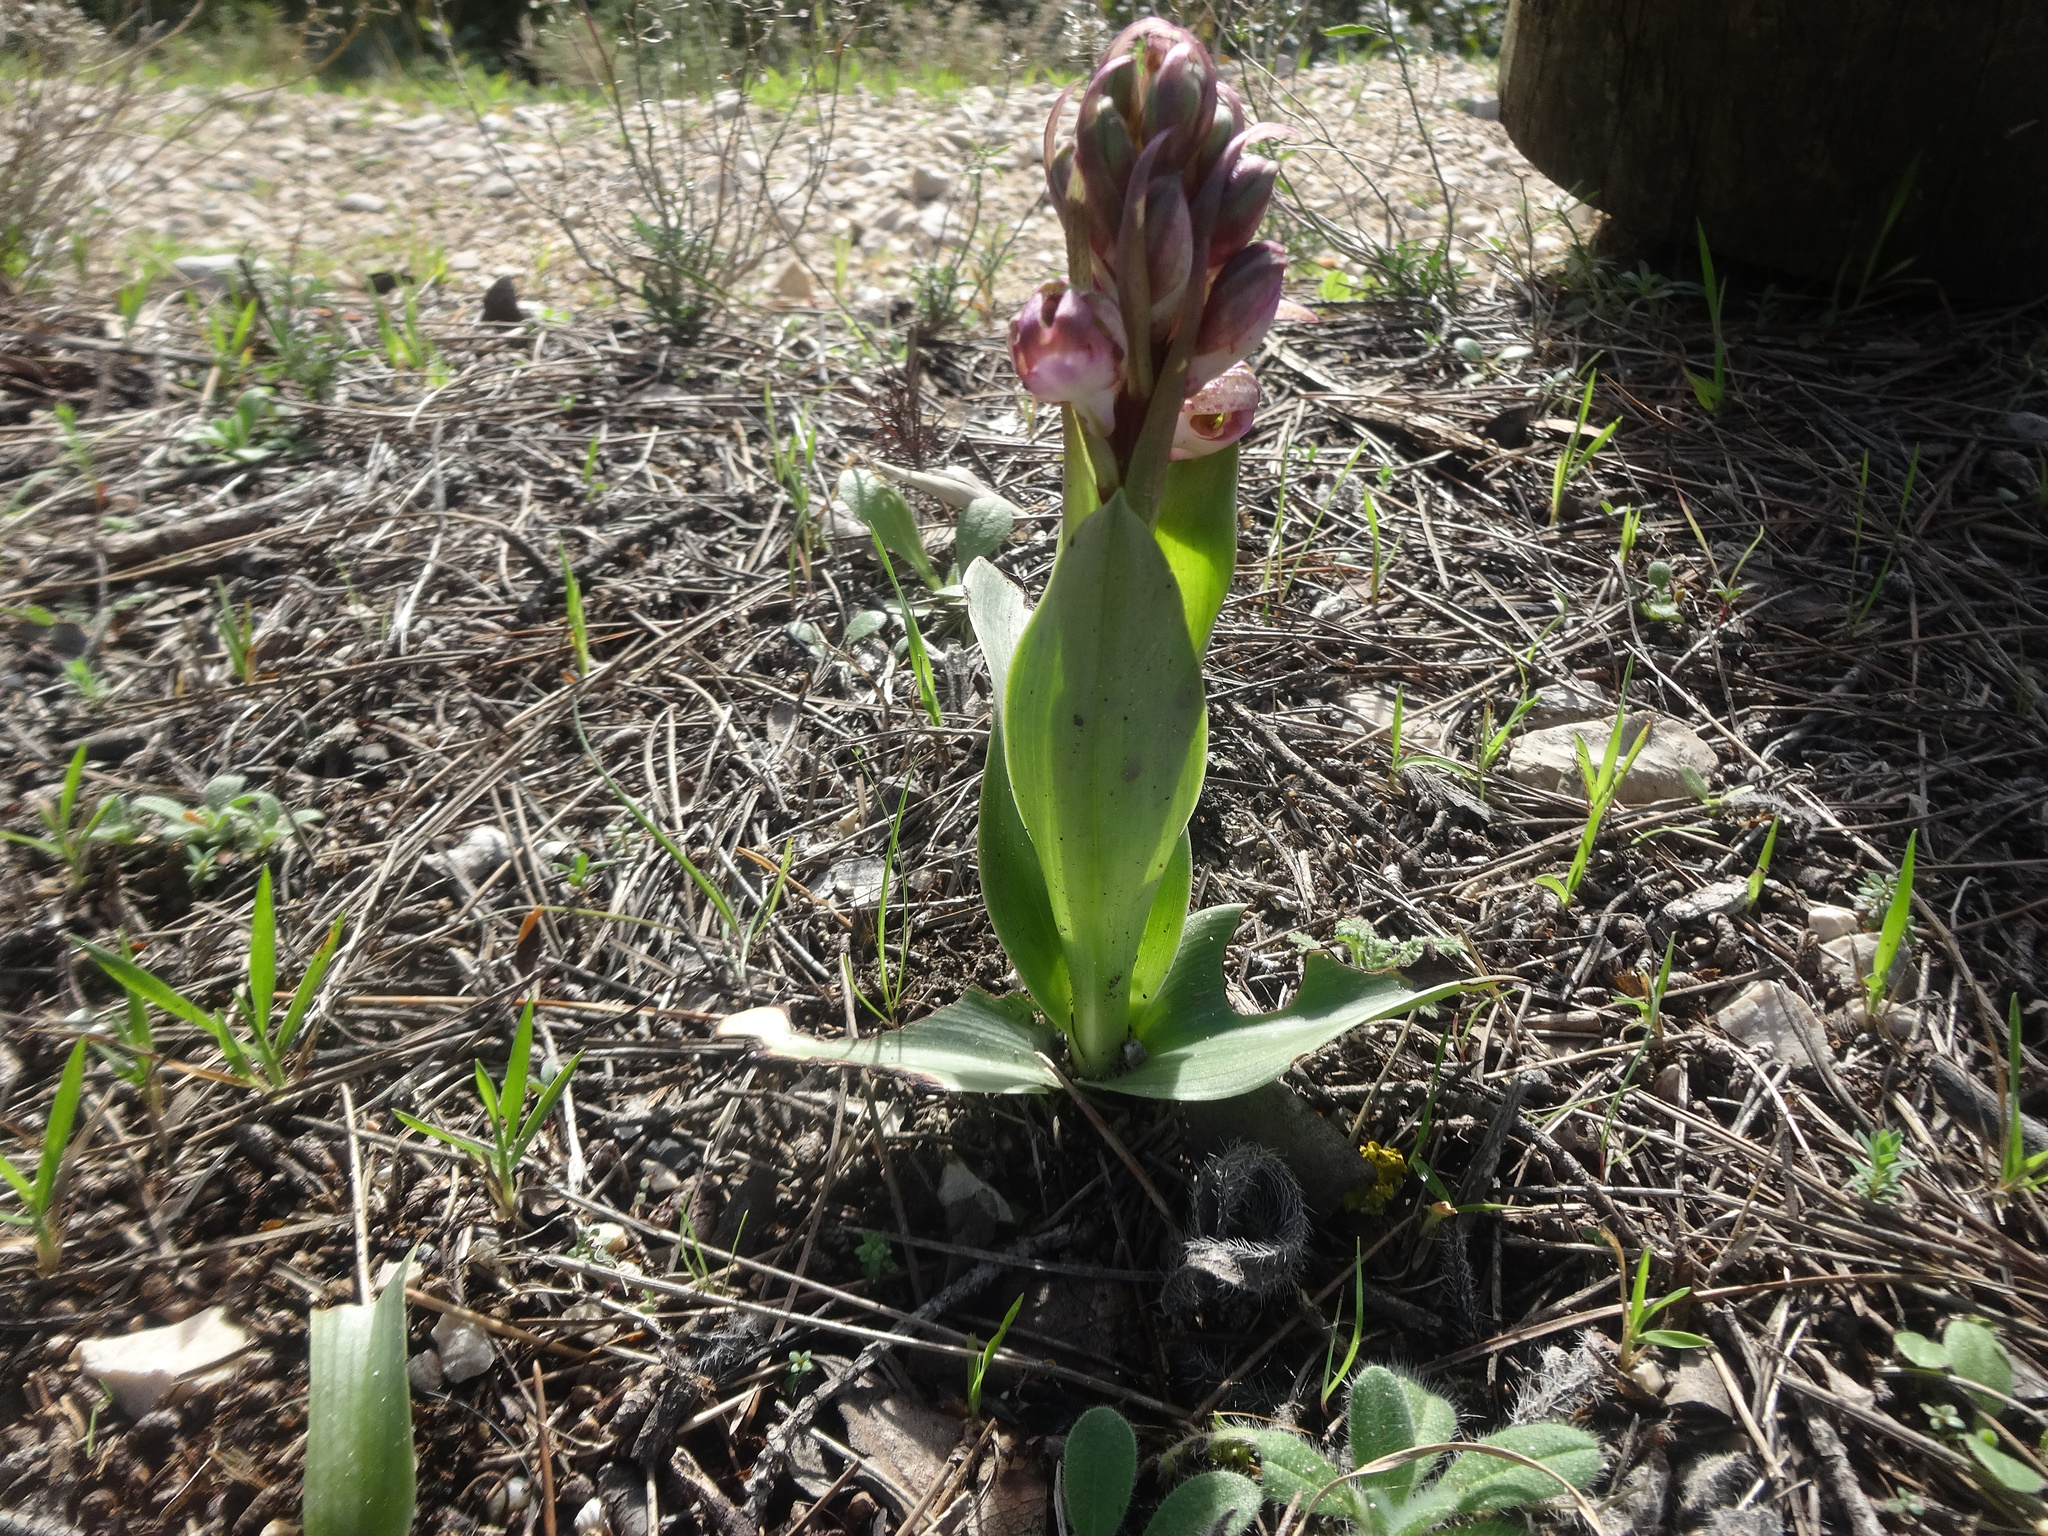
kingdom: Plantae
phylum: Tracheophyta
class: Liliopsida
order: Asparagales
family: Orchidaceae
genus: Himantoglossum
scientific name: Himantoglossum robertianum
